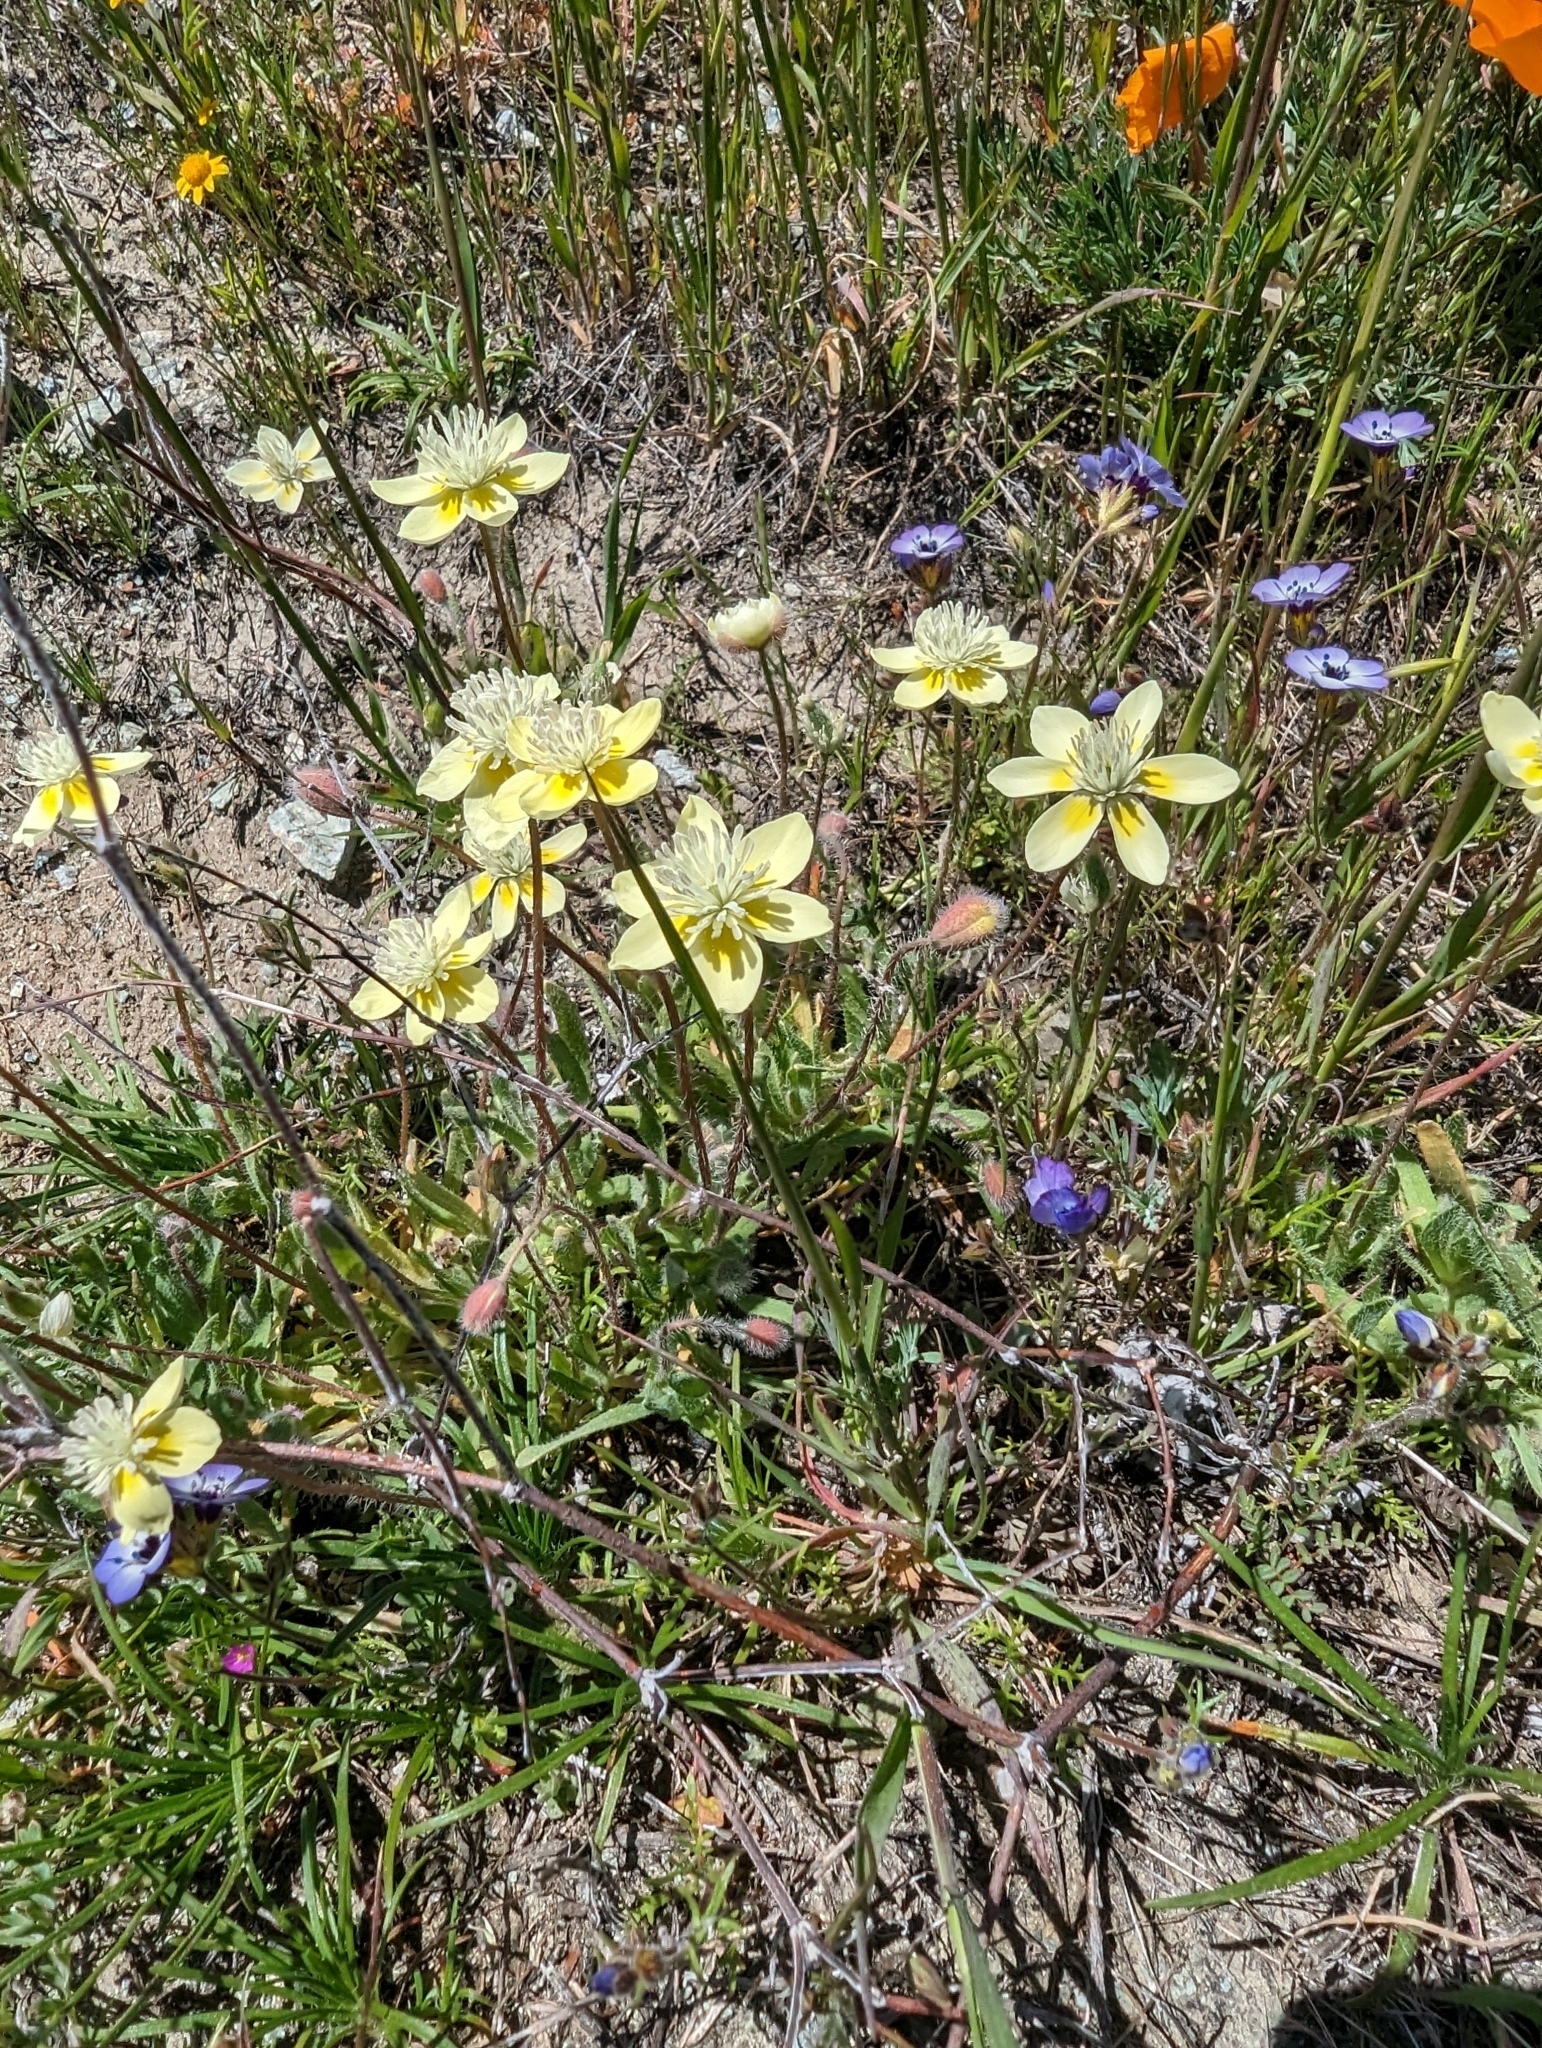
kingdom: Plantae
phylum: Tracheophyta
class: Magnoliopsida
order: Ranunculales
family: Papaveraceae
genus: Platystemon
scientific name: Platystemon californicus
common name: Cream-cups
